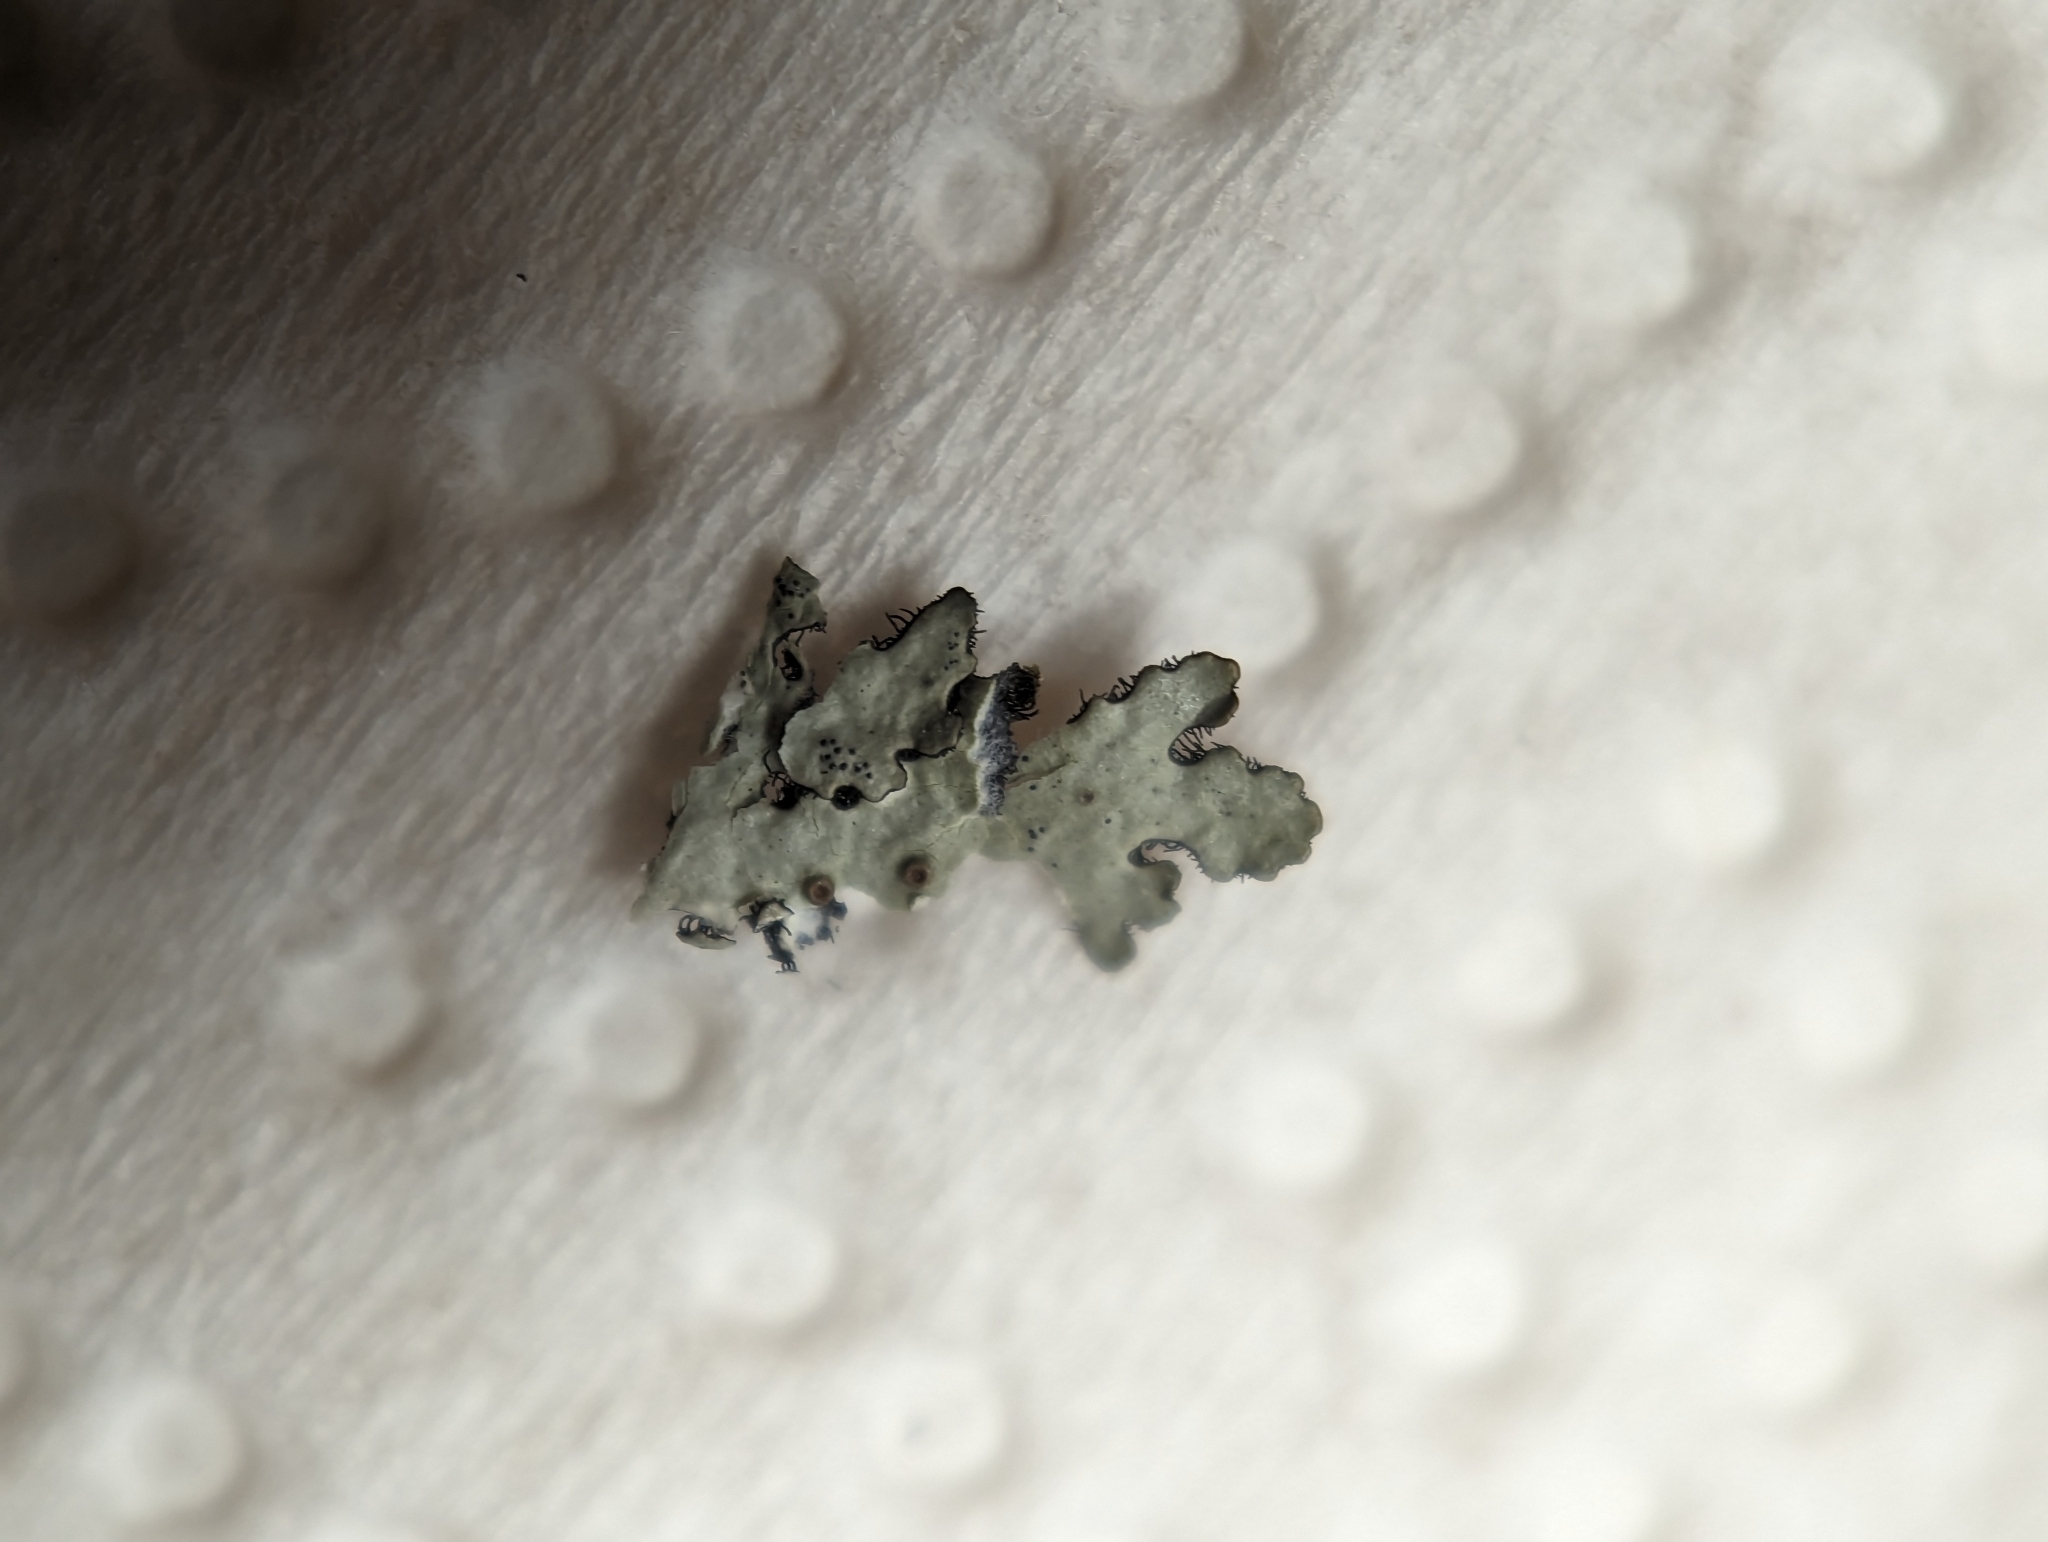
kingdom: Fungi
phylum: Ascomycota
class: Lecanoromycetes
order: Lecanorales
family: Parmeliaceae
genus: Hypotrachyna
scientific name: Hypotrachyna livida
